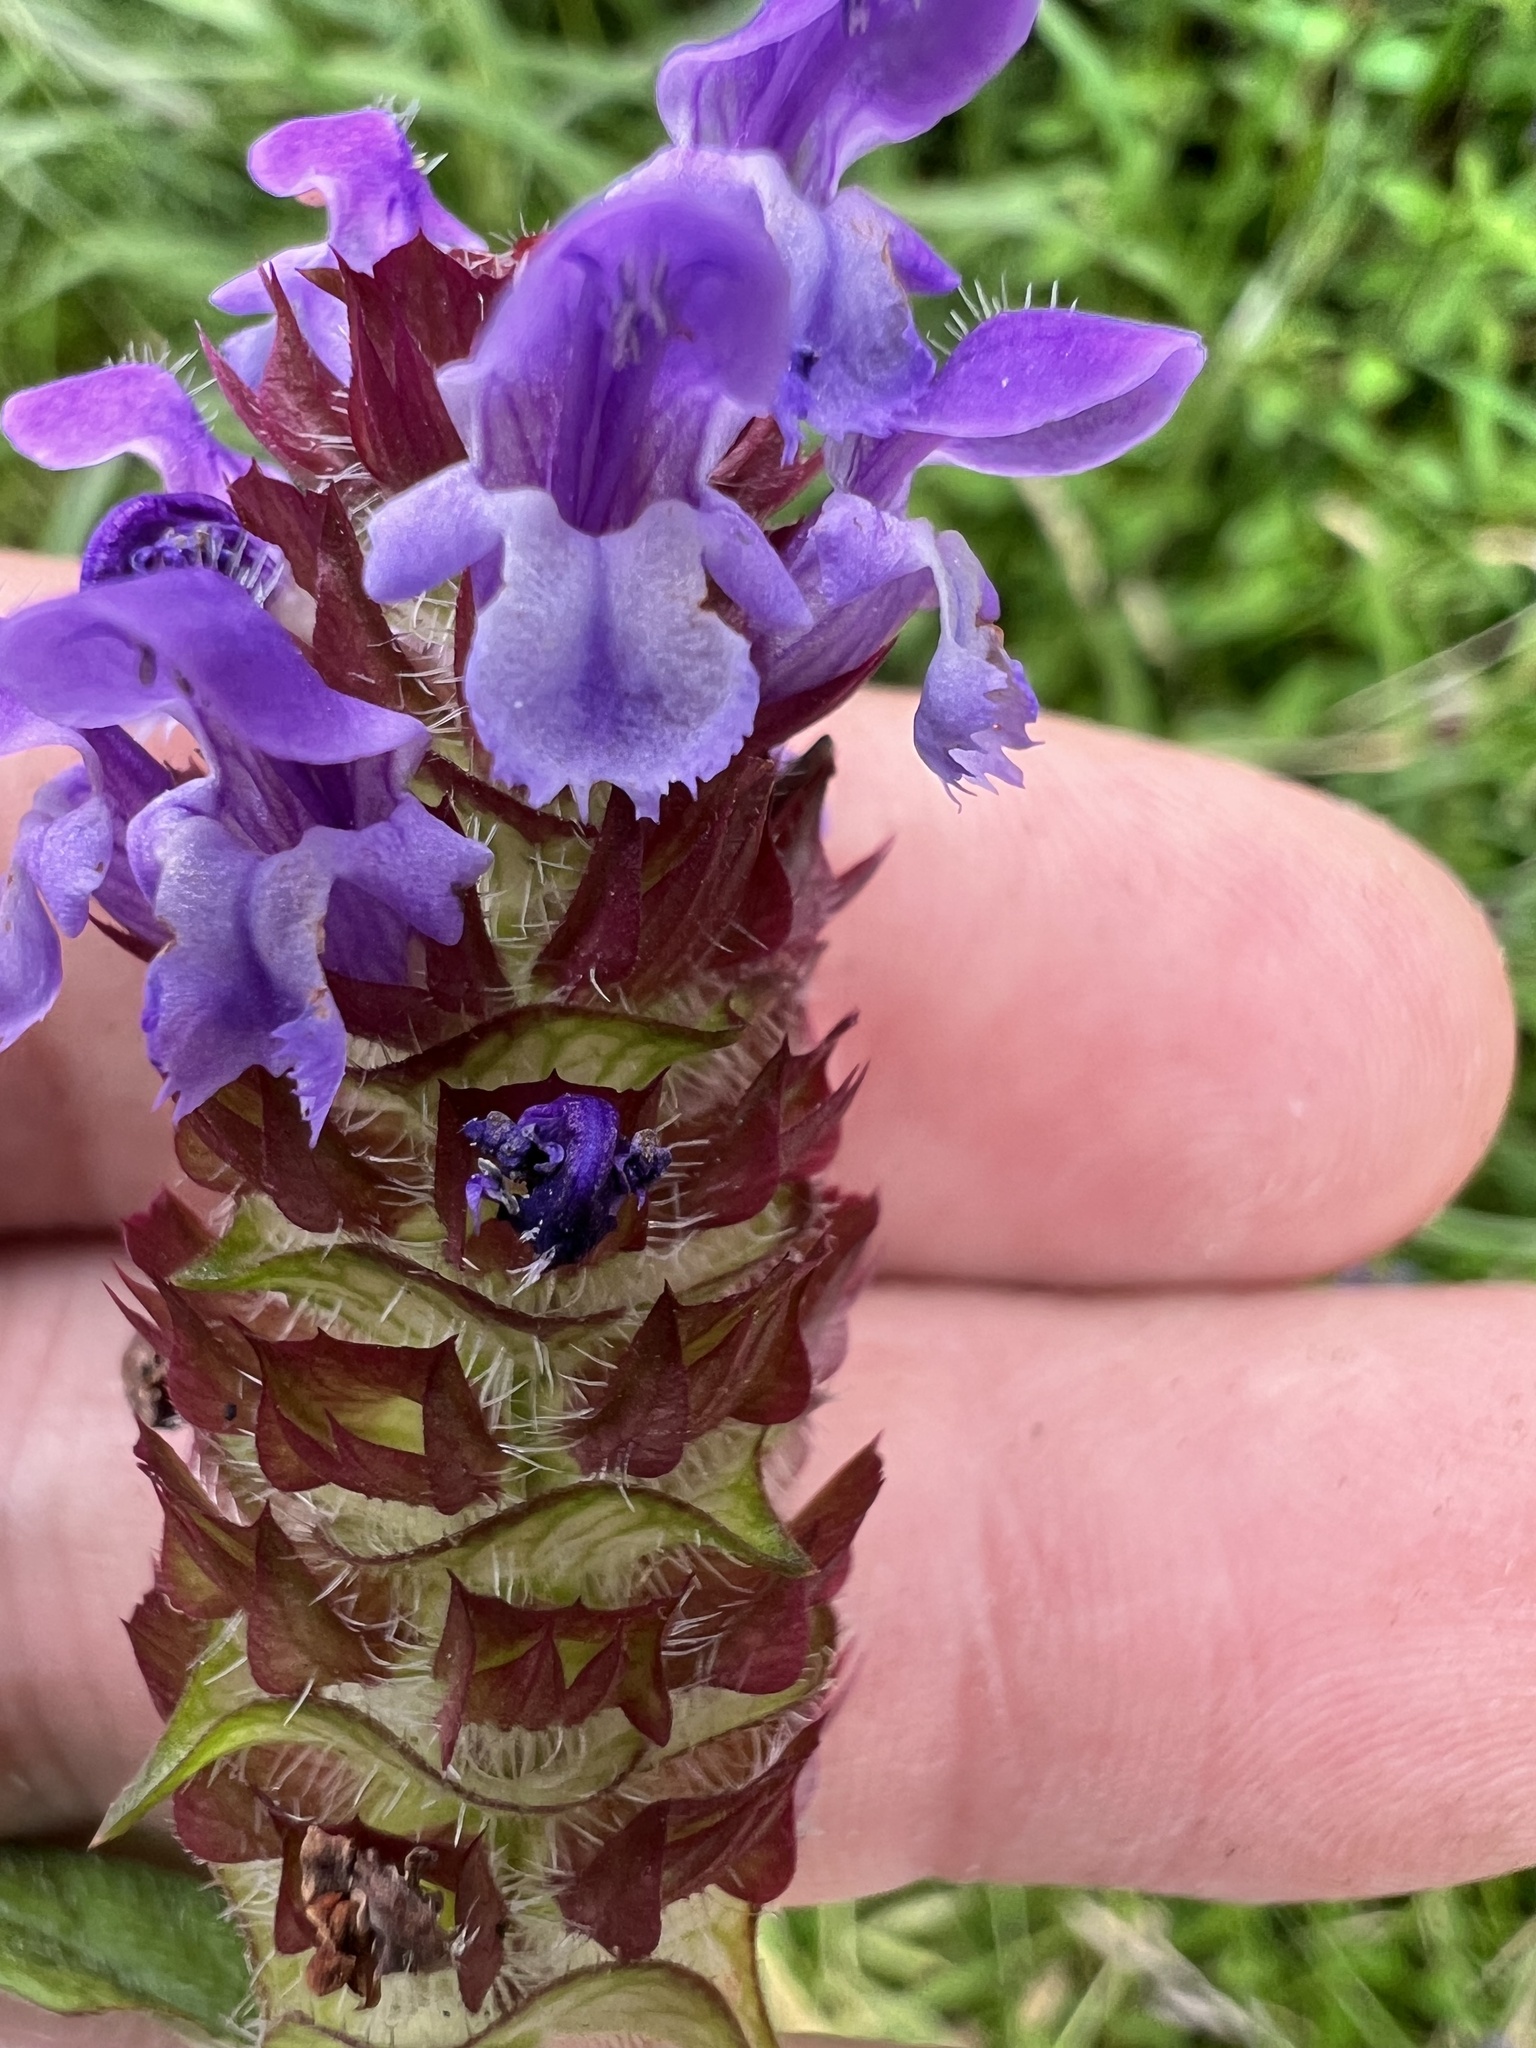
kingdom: Plantae
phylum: Tracheophyta
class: Magnoliopsida
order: Lamiales
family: Lamiaceae
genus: Prunella
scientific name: Prunella vulgaris
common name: Heal-all
